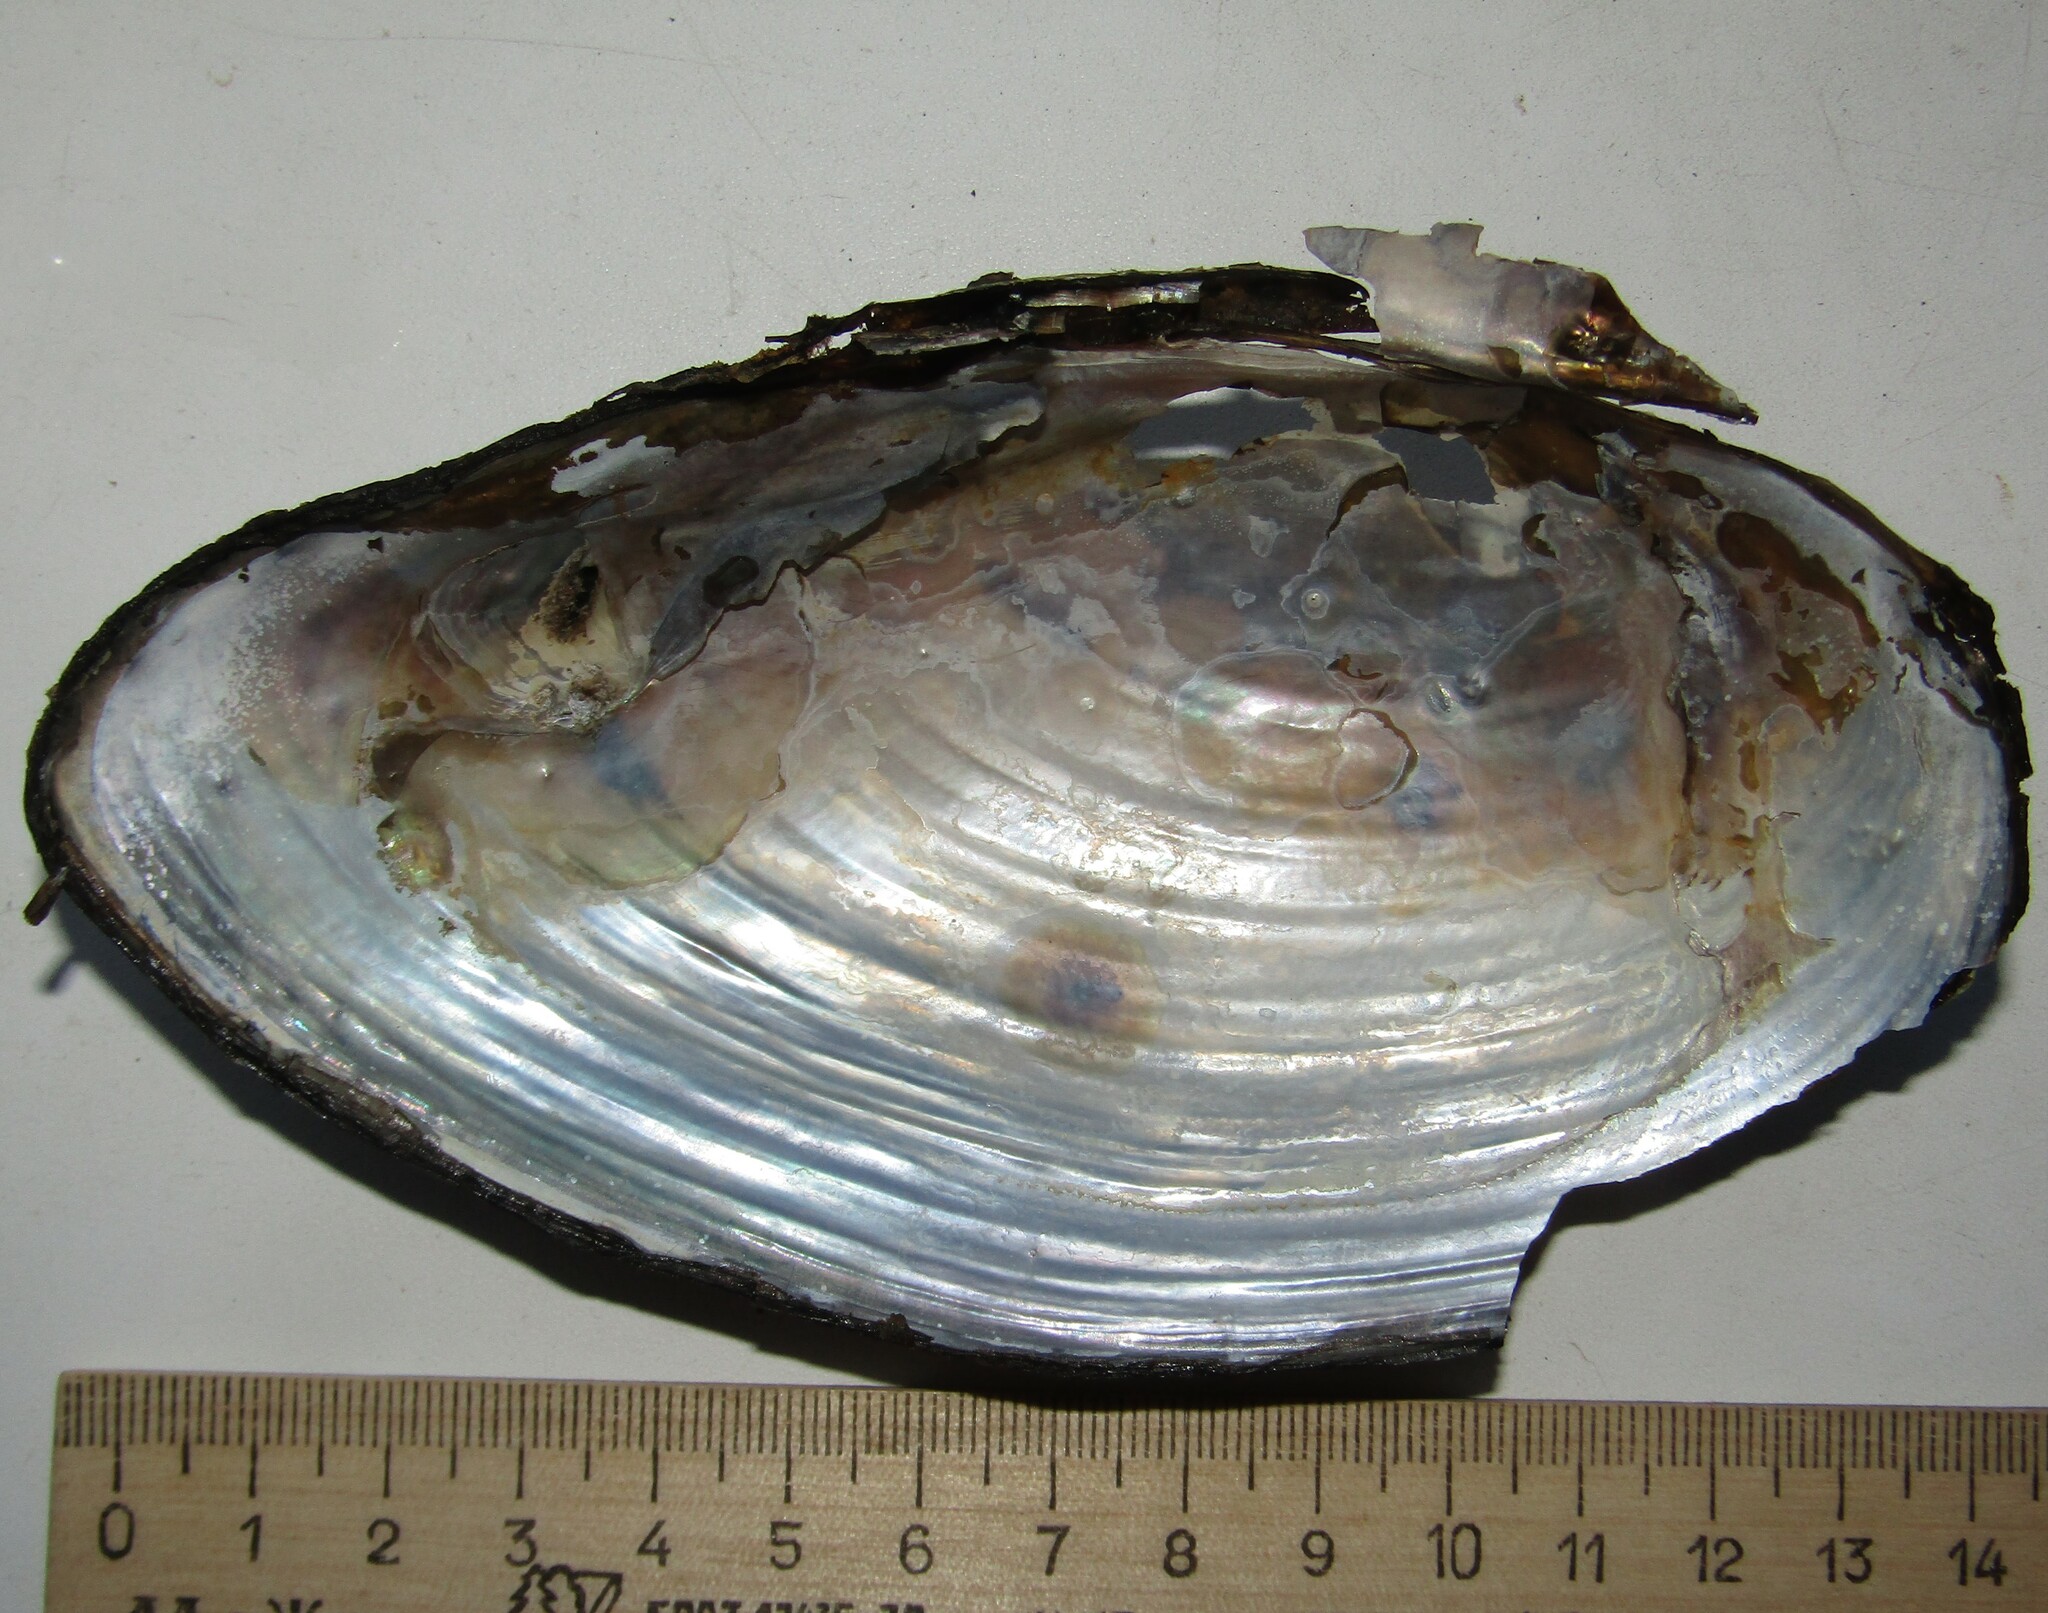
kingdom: Animalia
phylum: Mollusca
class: Bivalvia
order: Unionida
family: Unionidae
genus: Anodonta
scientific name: Anodonta cygnea
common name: Swan mussel
